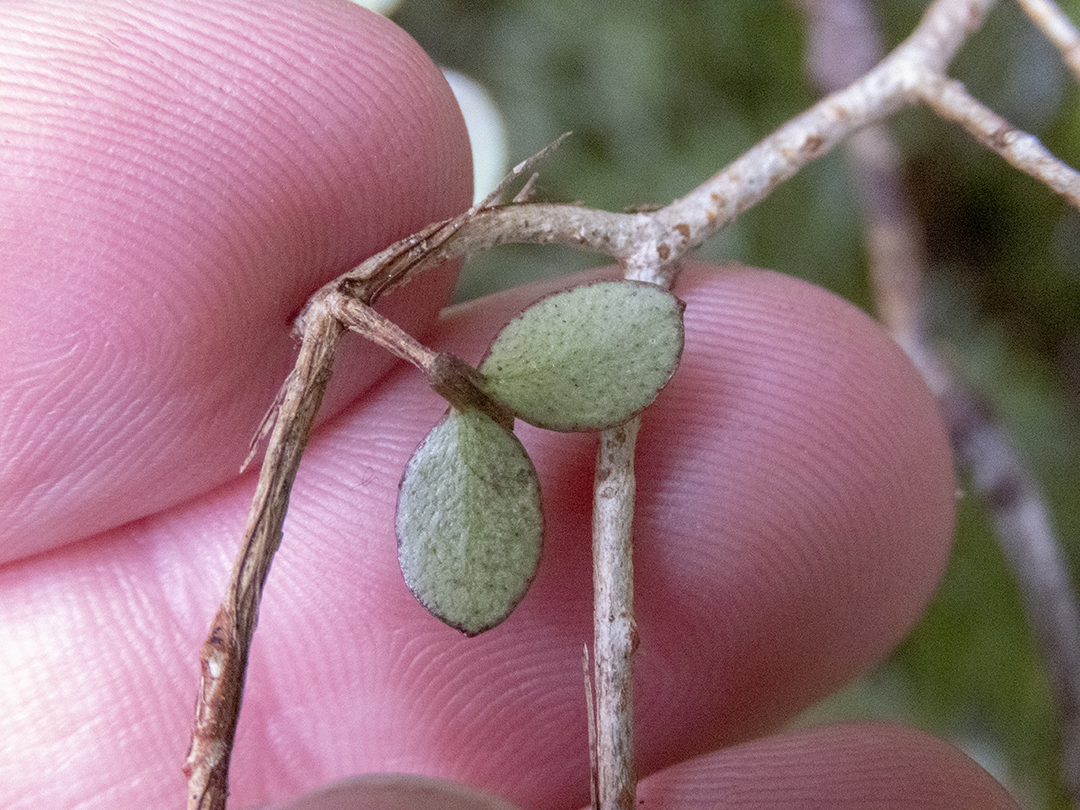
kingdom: Plantae
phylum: Tracheophyta
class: Magnoliopsida
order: Myrtales
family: Myrtaceae
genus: Neomyrtus
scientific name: Neomyrtus pedunculata
